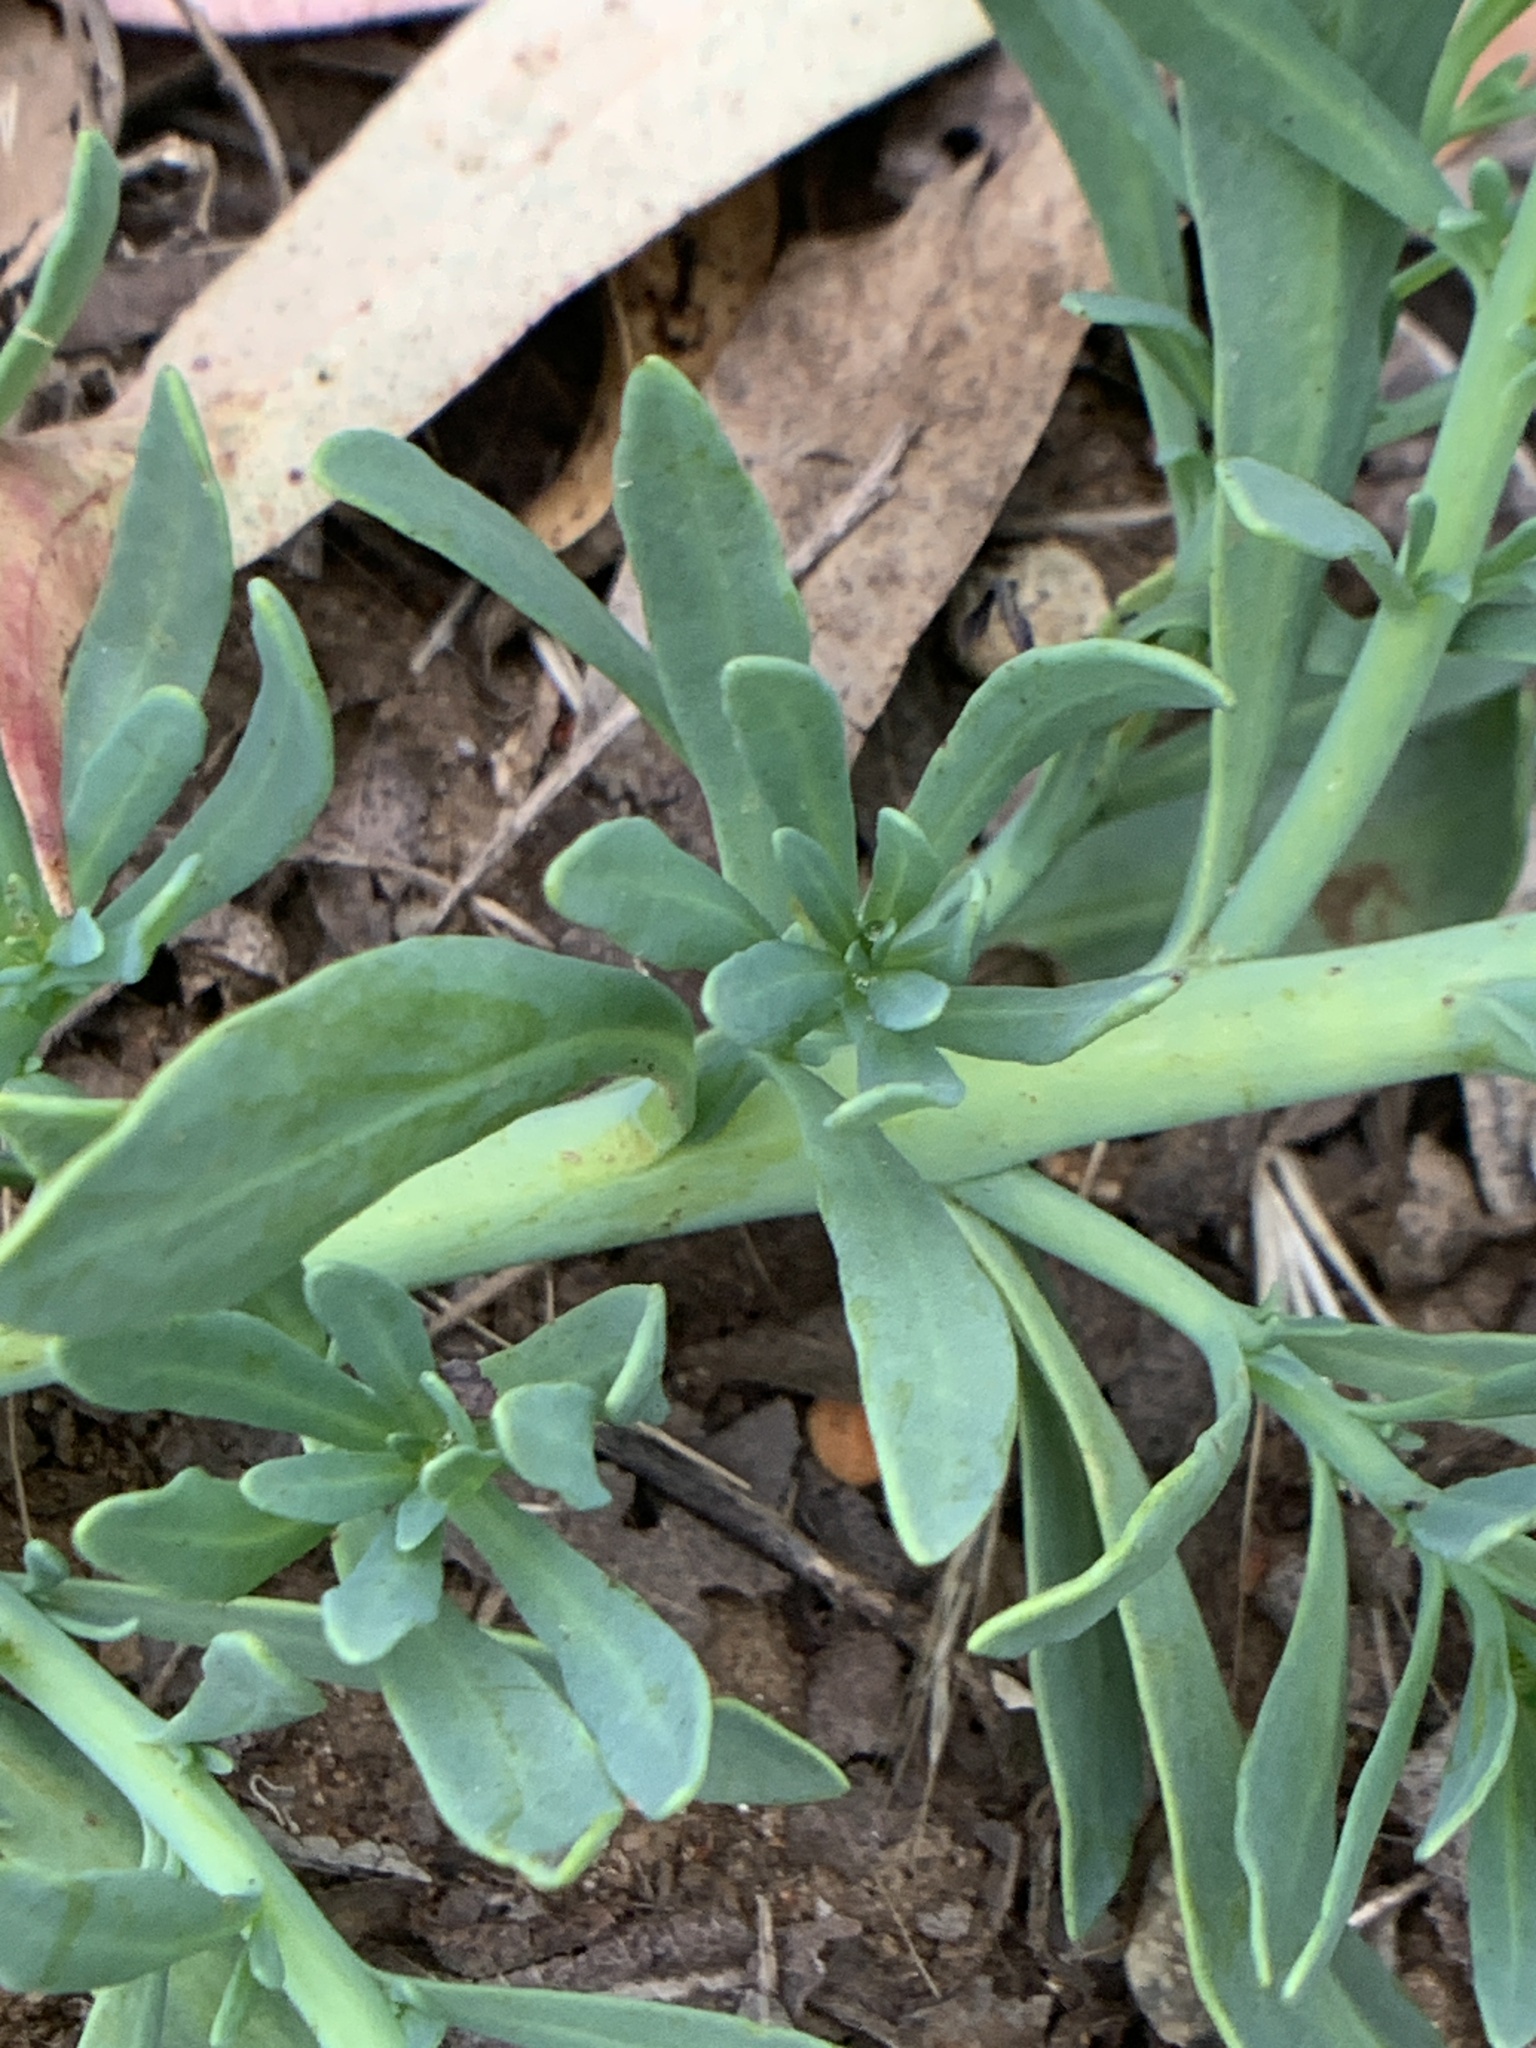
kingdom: Plantae
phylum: Tracheophyta
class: Magnoliopsida
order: Boraginales
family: Heliotropiaceae
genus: Heliotropium
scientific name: Heliotropium curassavicum
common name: Seaside heliotrope
